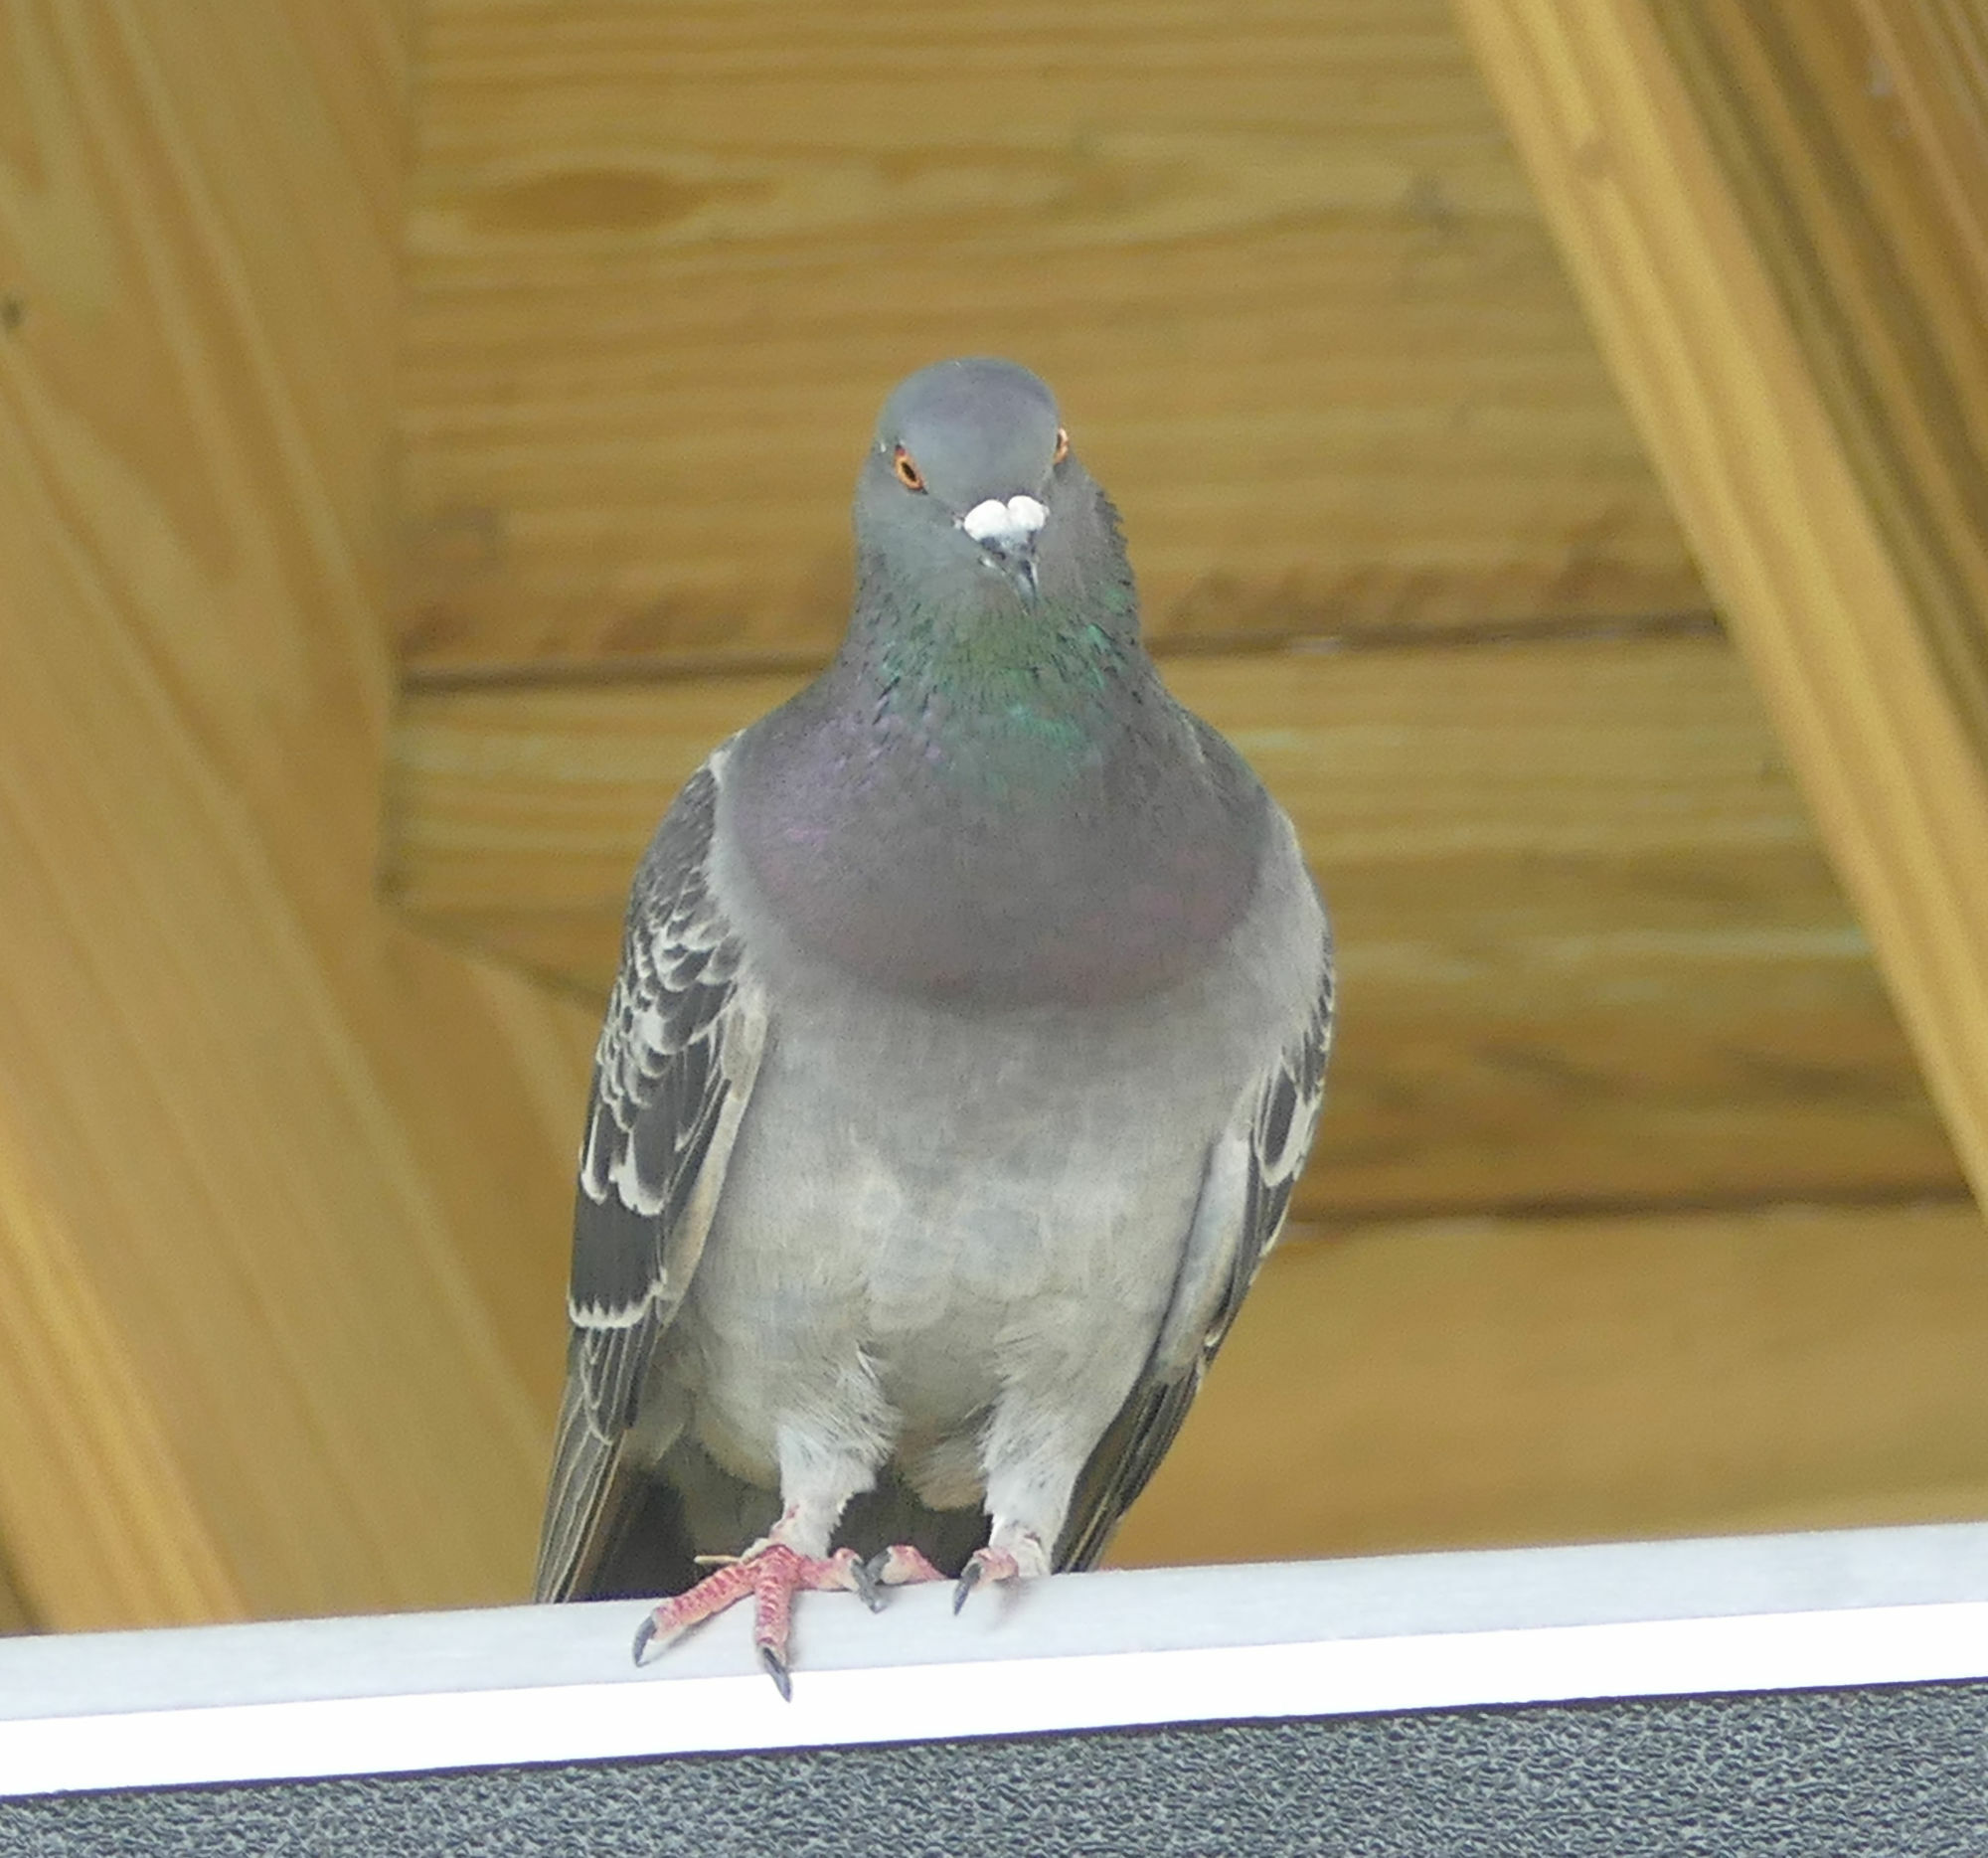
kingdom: Animalia
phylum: Chordata
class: Aves
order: Columbiformes
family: Columbidae
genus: Columba
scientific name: Columba livia
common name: Rock pigeon
